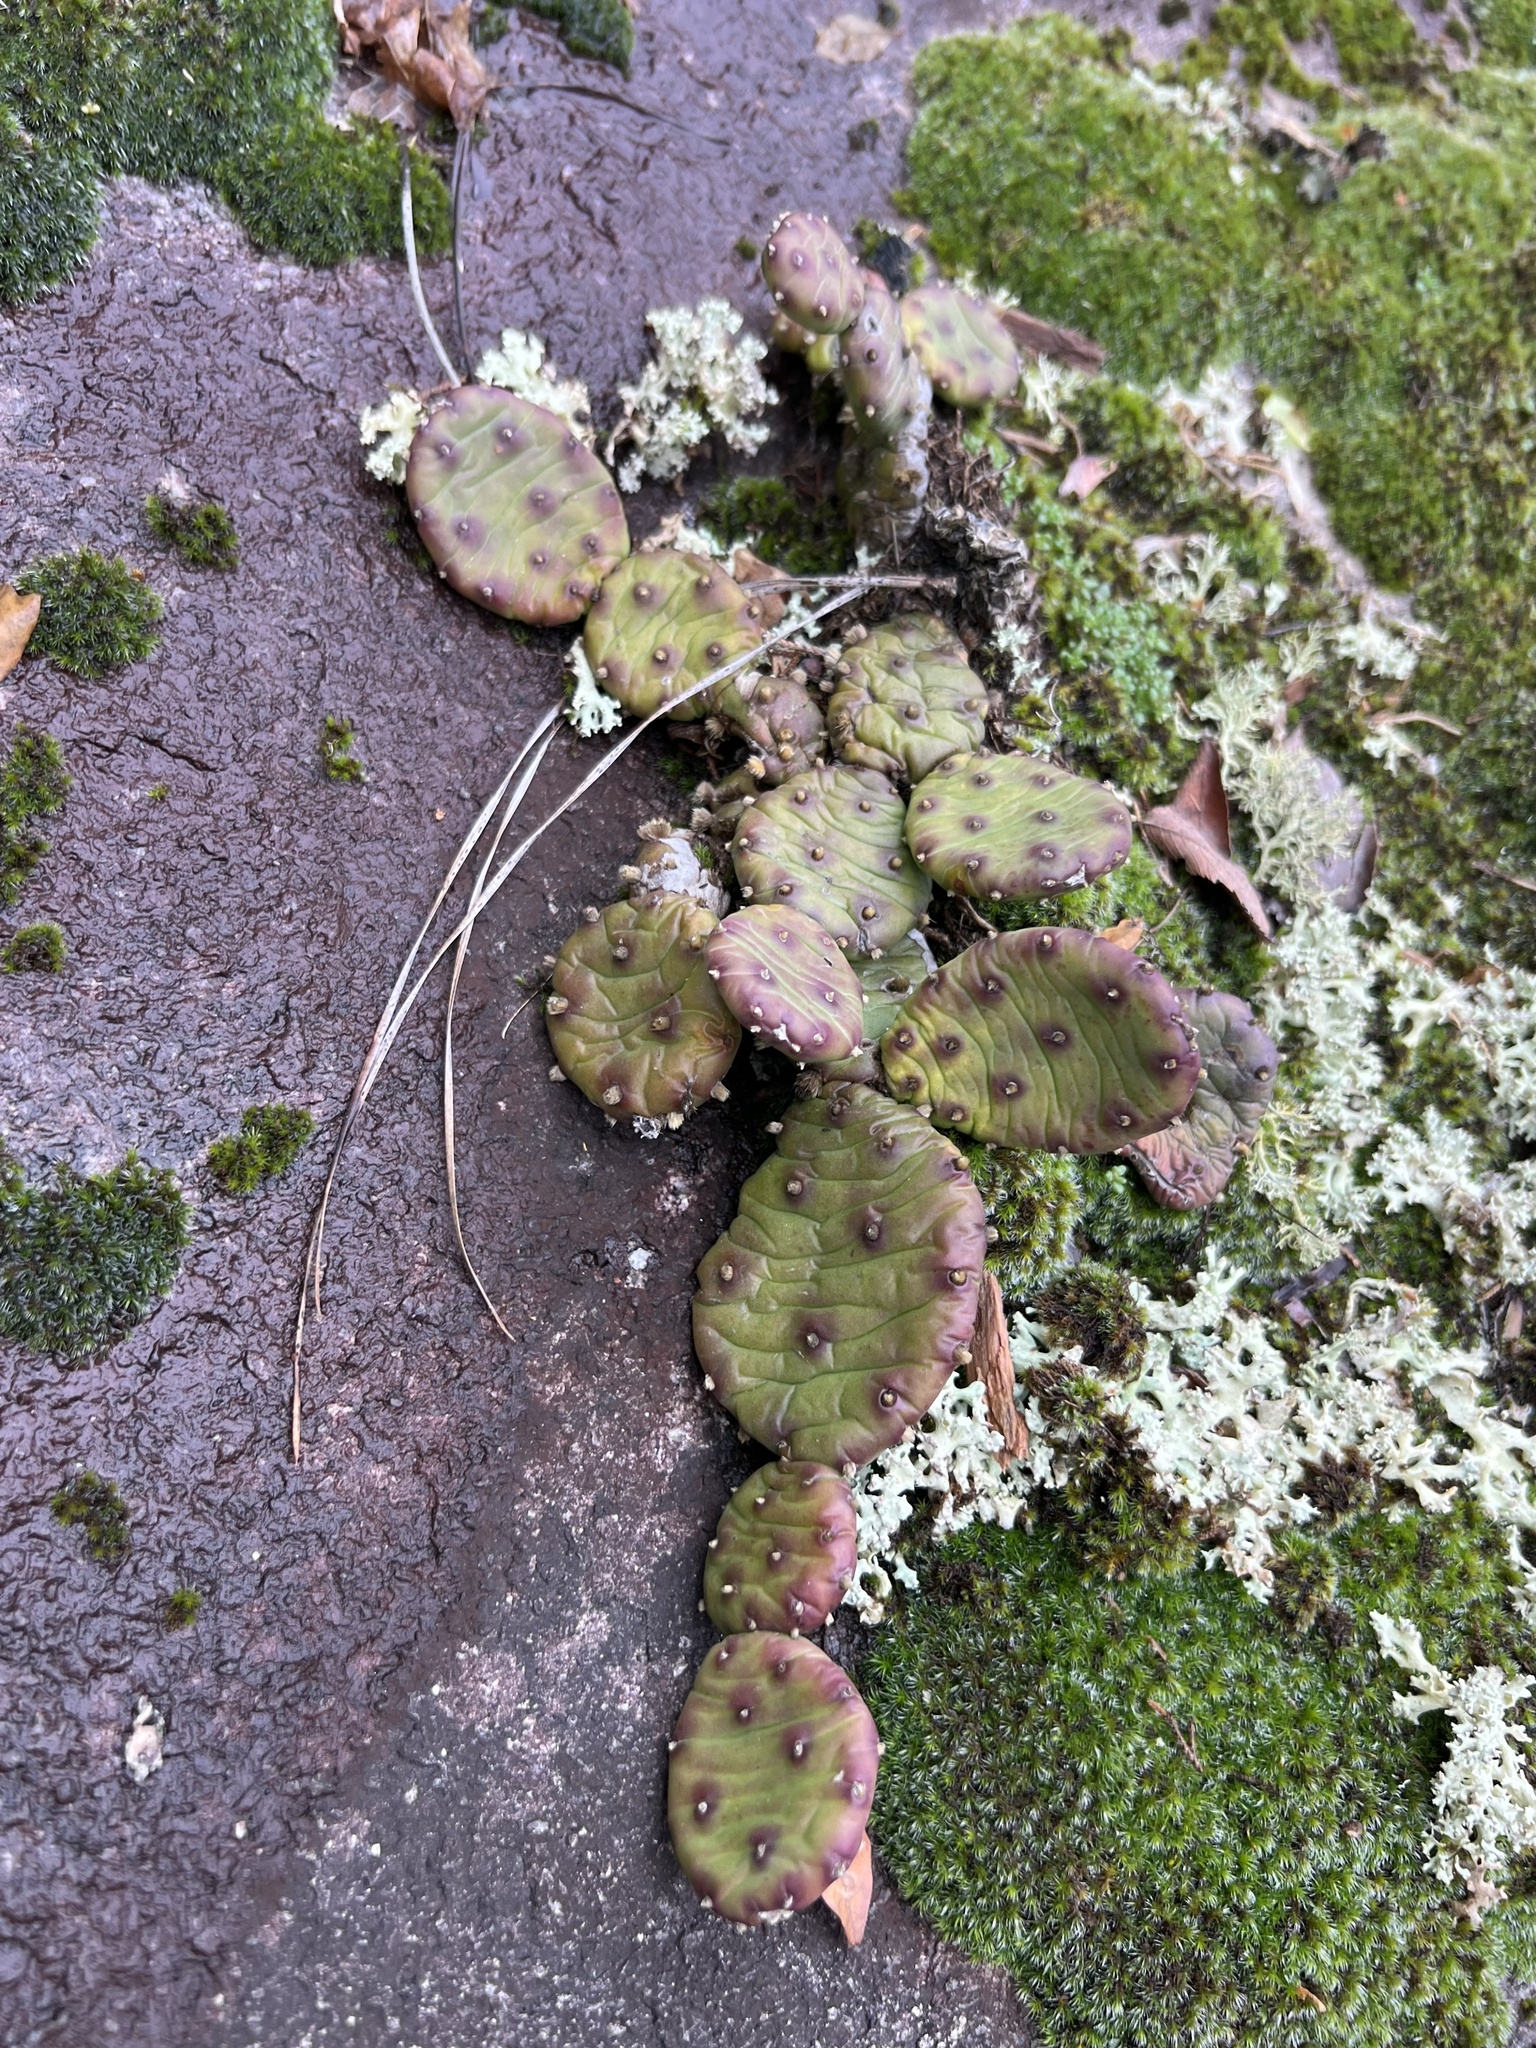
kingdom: Plantae
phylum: Tracheophyta
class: Magnoliopsida
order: Caryophyllales
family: Cactaceae
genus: Opuntia
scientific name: Opuntia mesacantha
